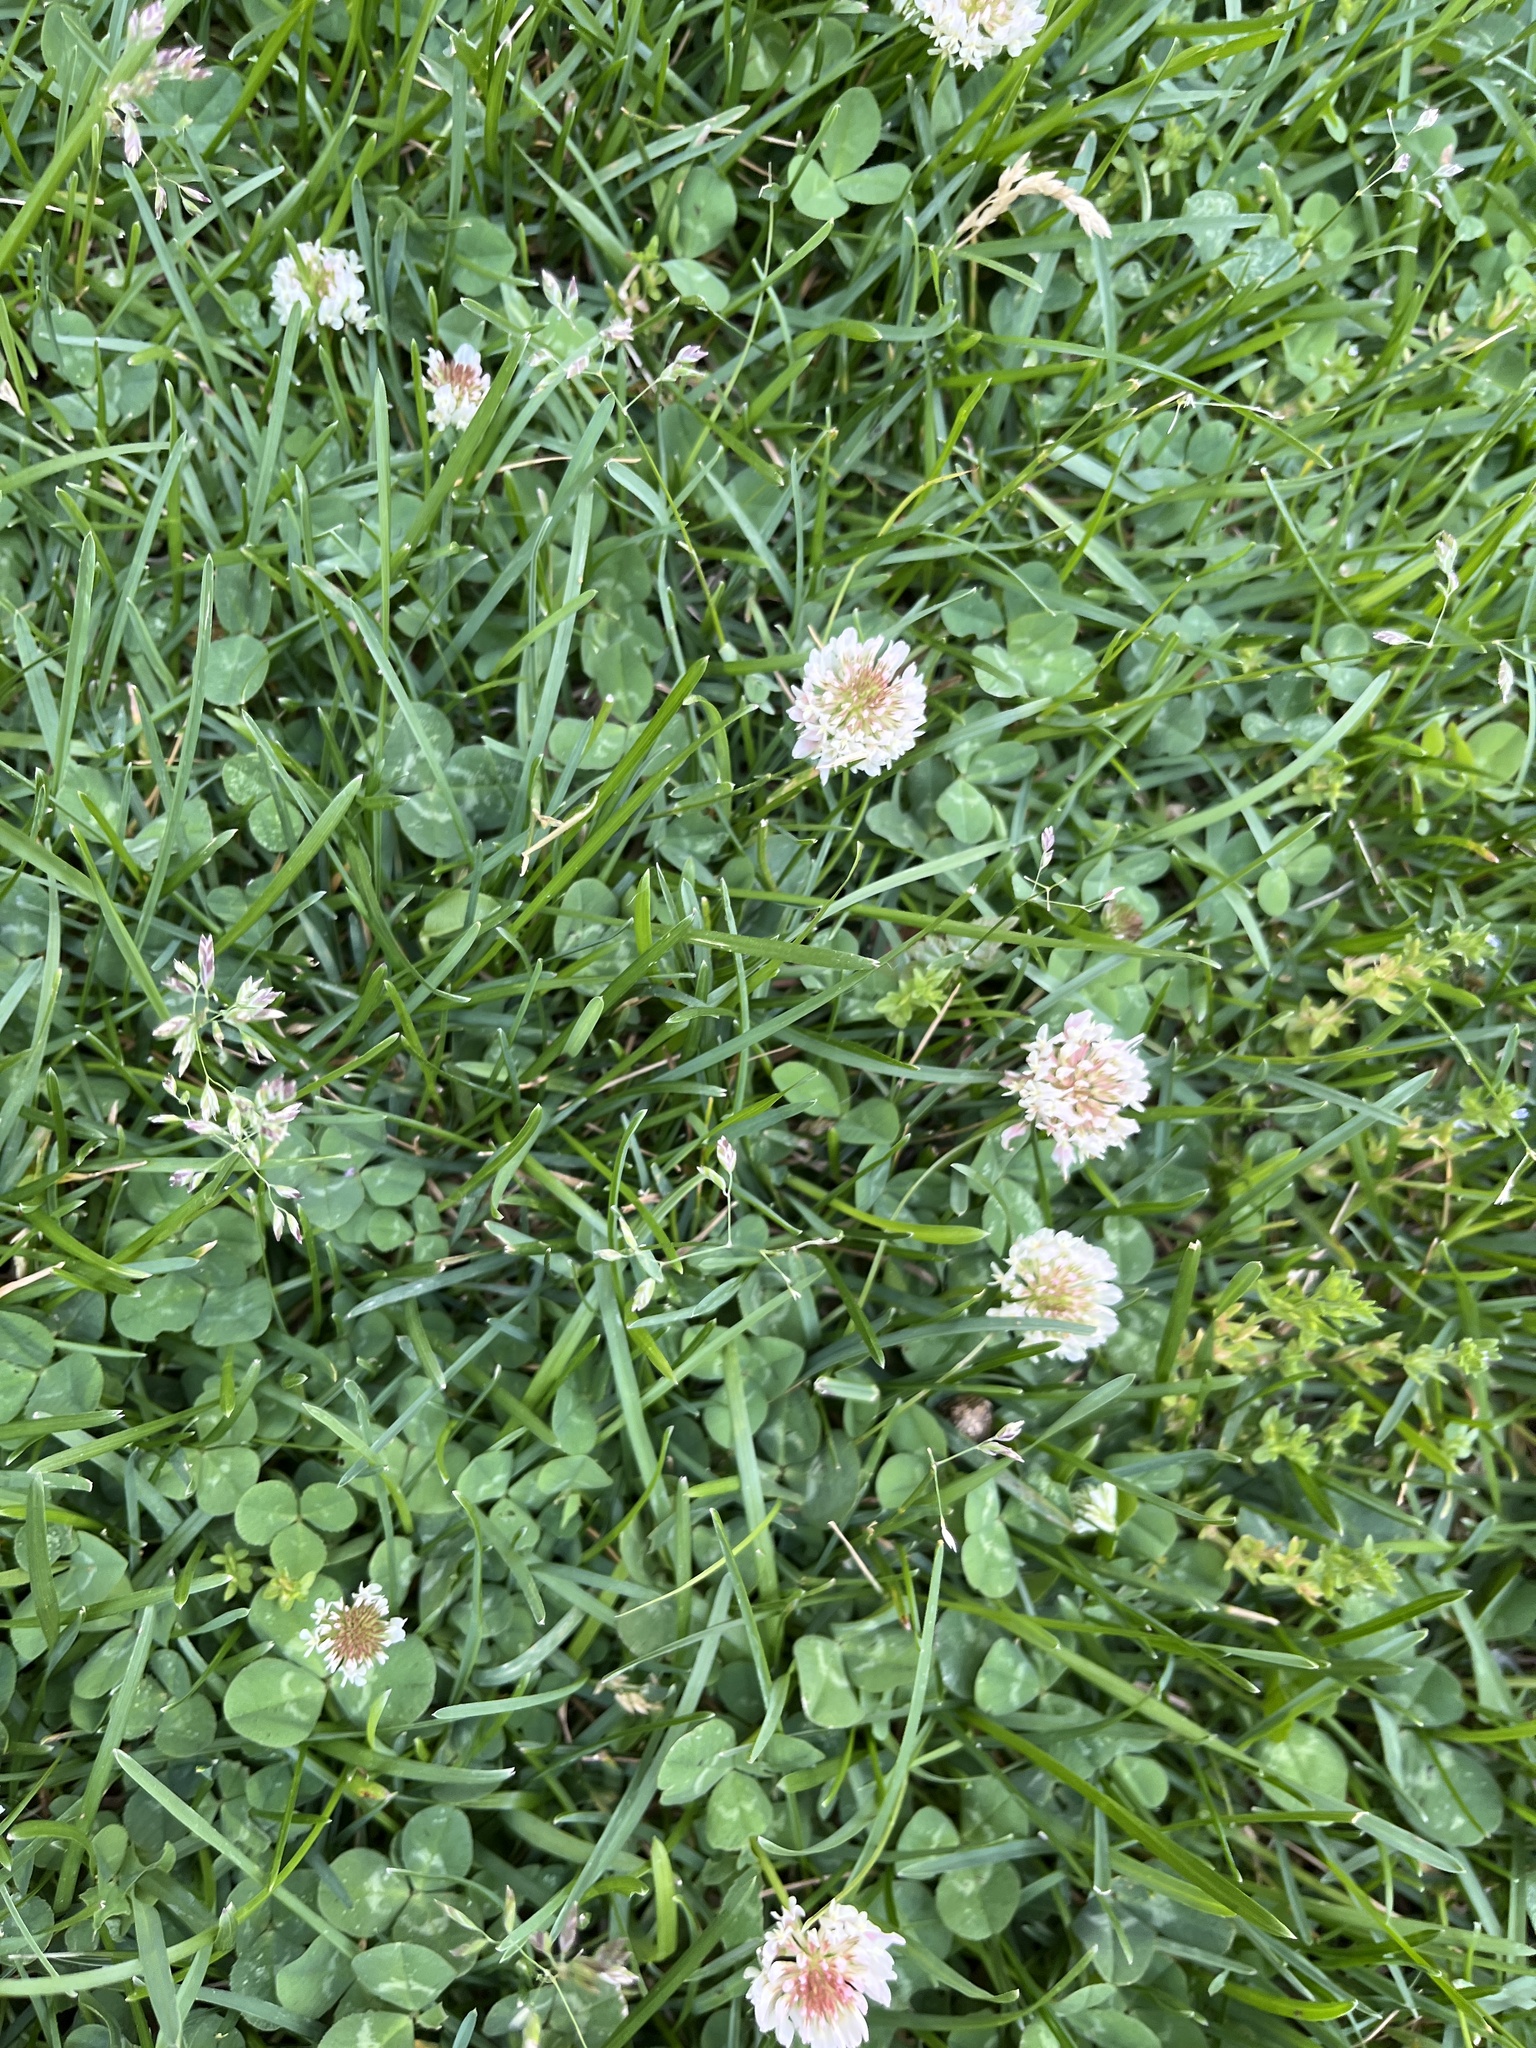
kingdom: Plantae
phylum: Tracheophyta
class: Magnoliopsida
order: Fabales
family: Fabaceae
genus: Trifolium
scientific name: Trifolium repens
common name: White clover
